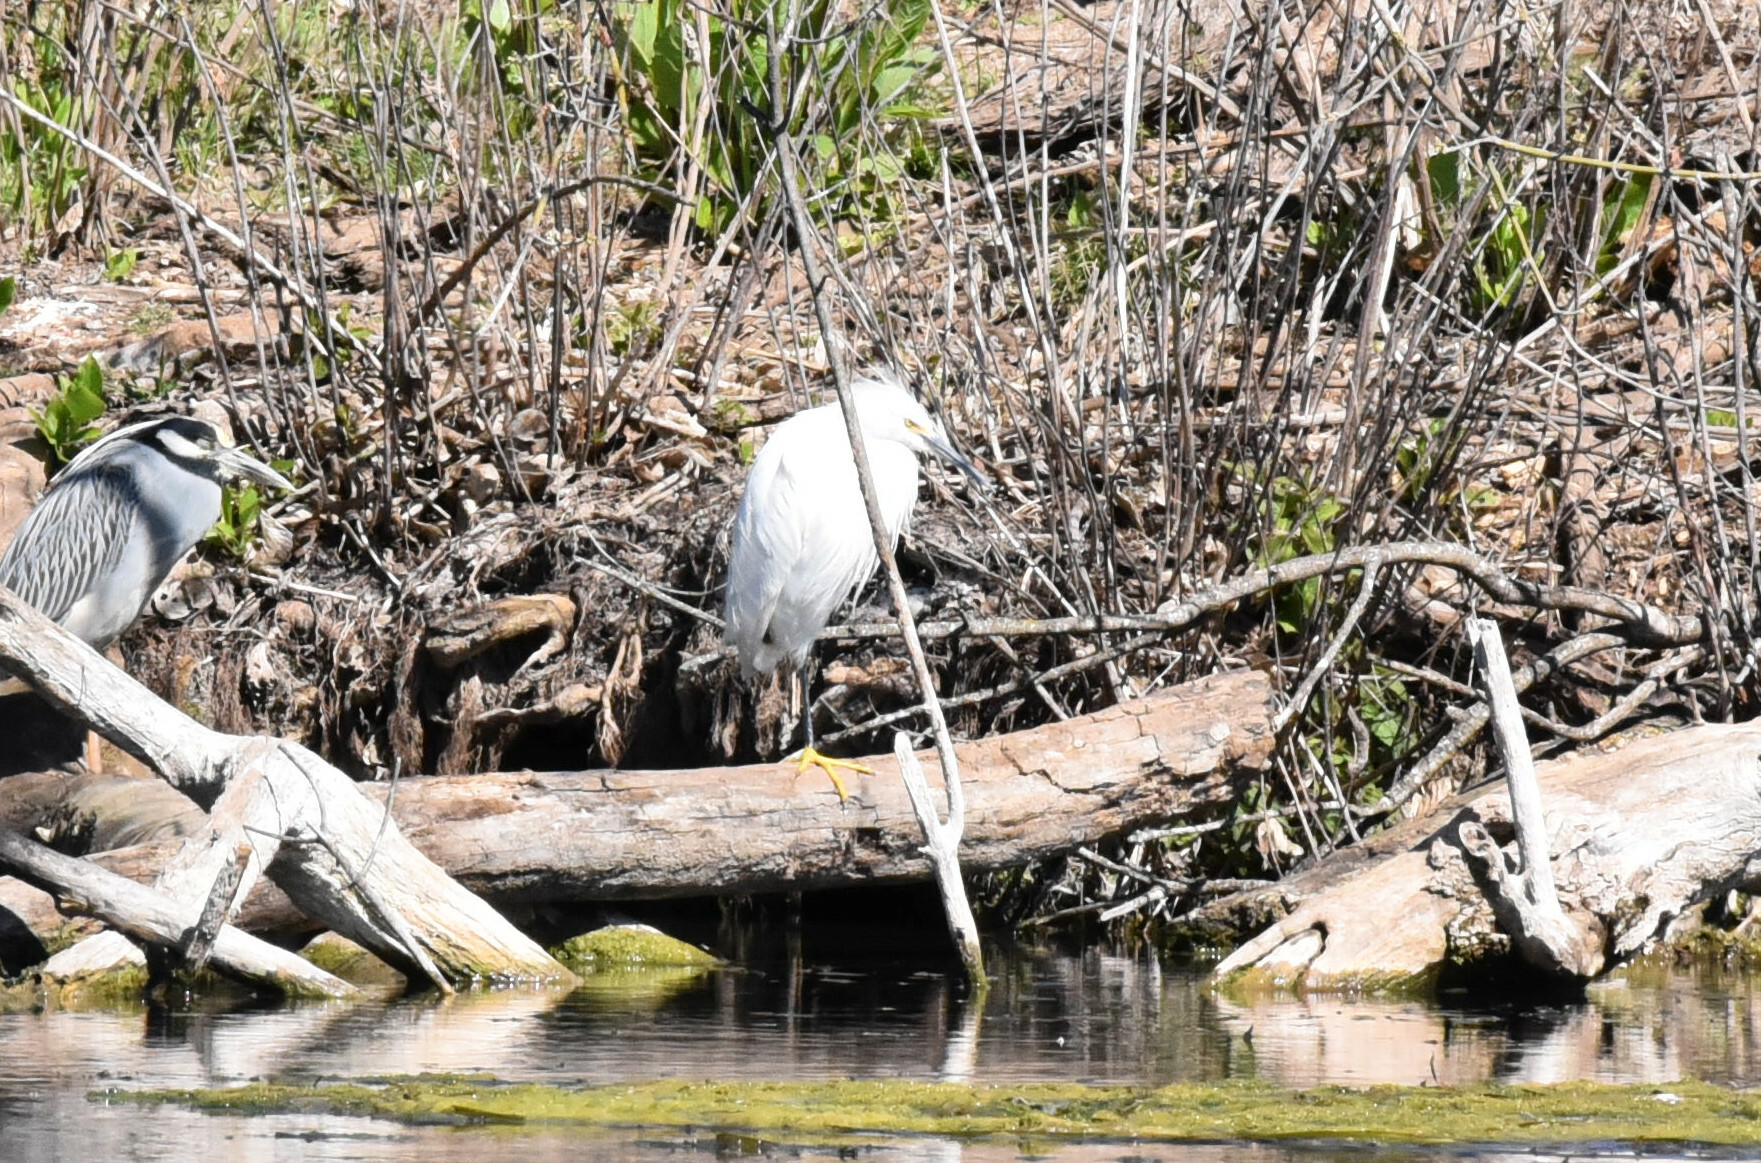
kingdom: Animalia
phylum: Chordata
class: Aves
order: Pelecaniformes
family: Ardeidae
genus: Egretta
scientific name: Egretta thula
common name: Snowy egret
